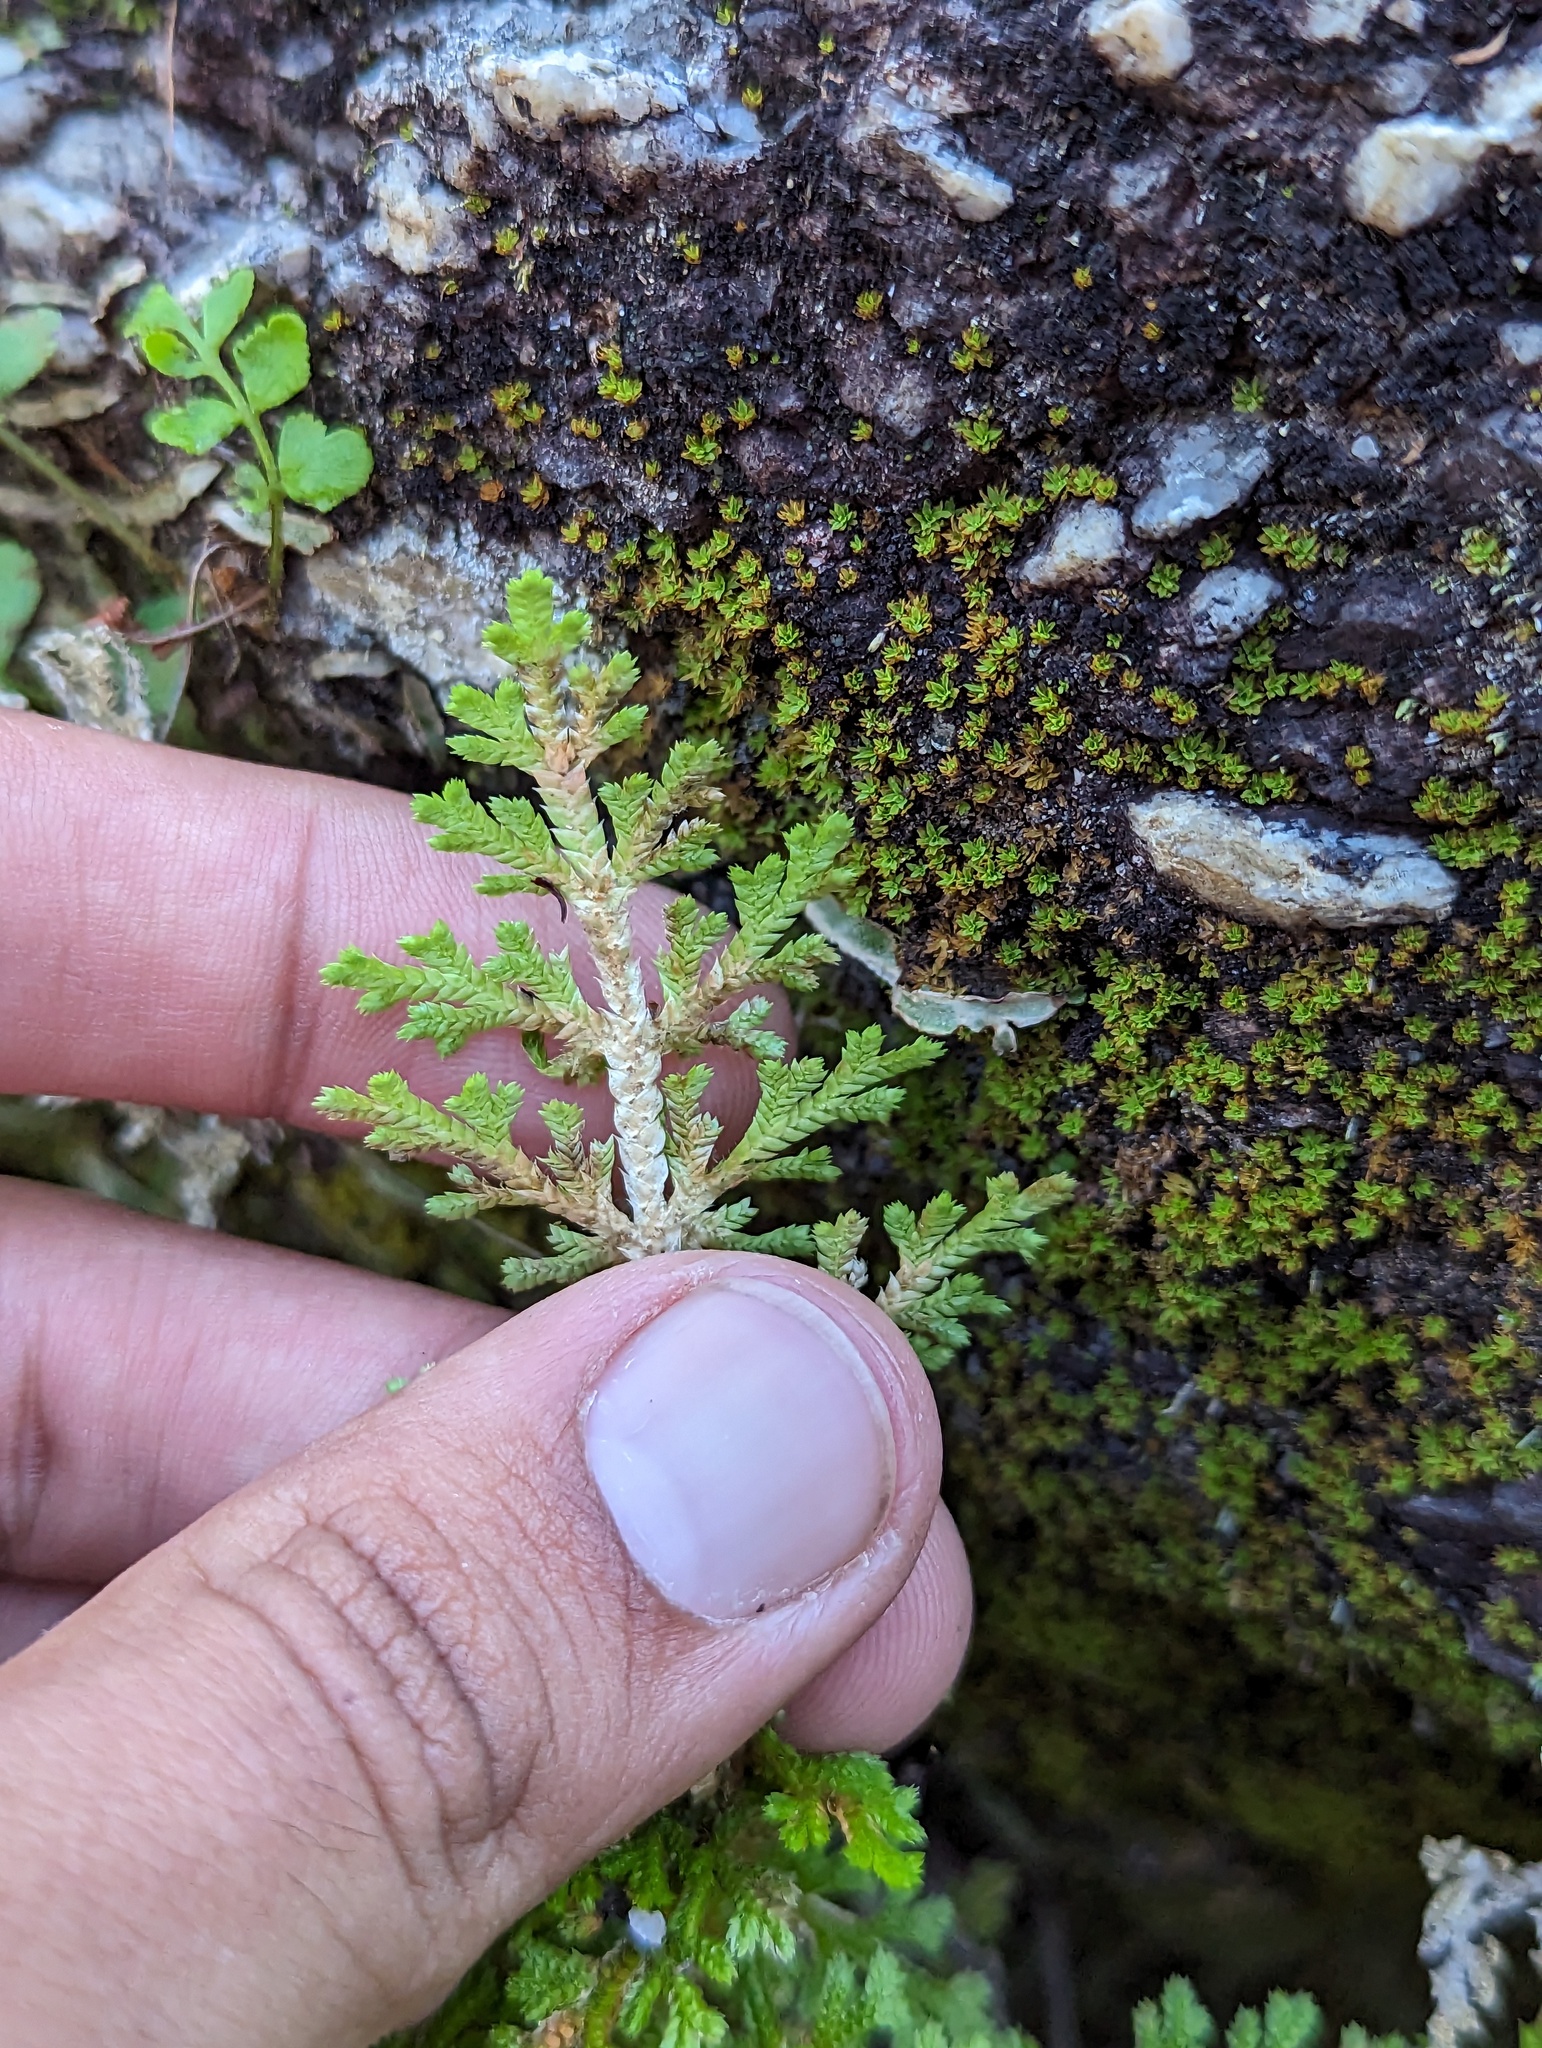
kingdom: Plantae
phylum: Tracheophyta
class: Lycopodiopsida
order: Selaginellales
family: Selaginellaceae
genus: Selaginella
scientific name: Selaginella pallescens
